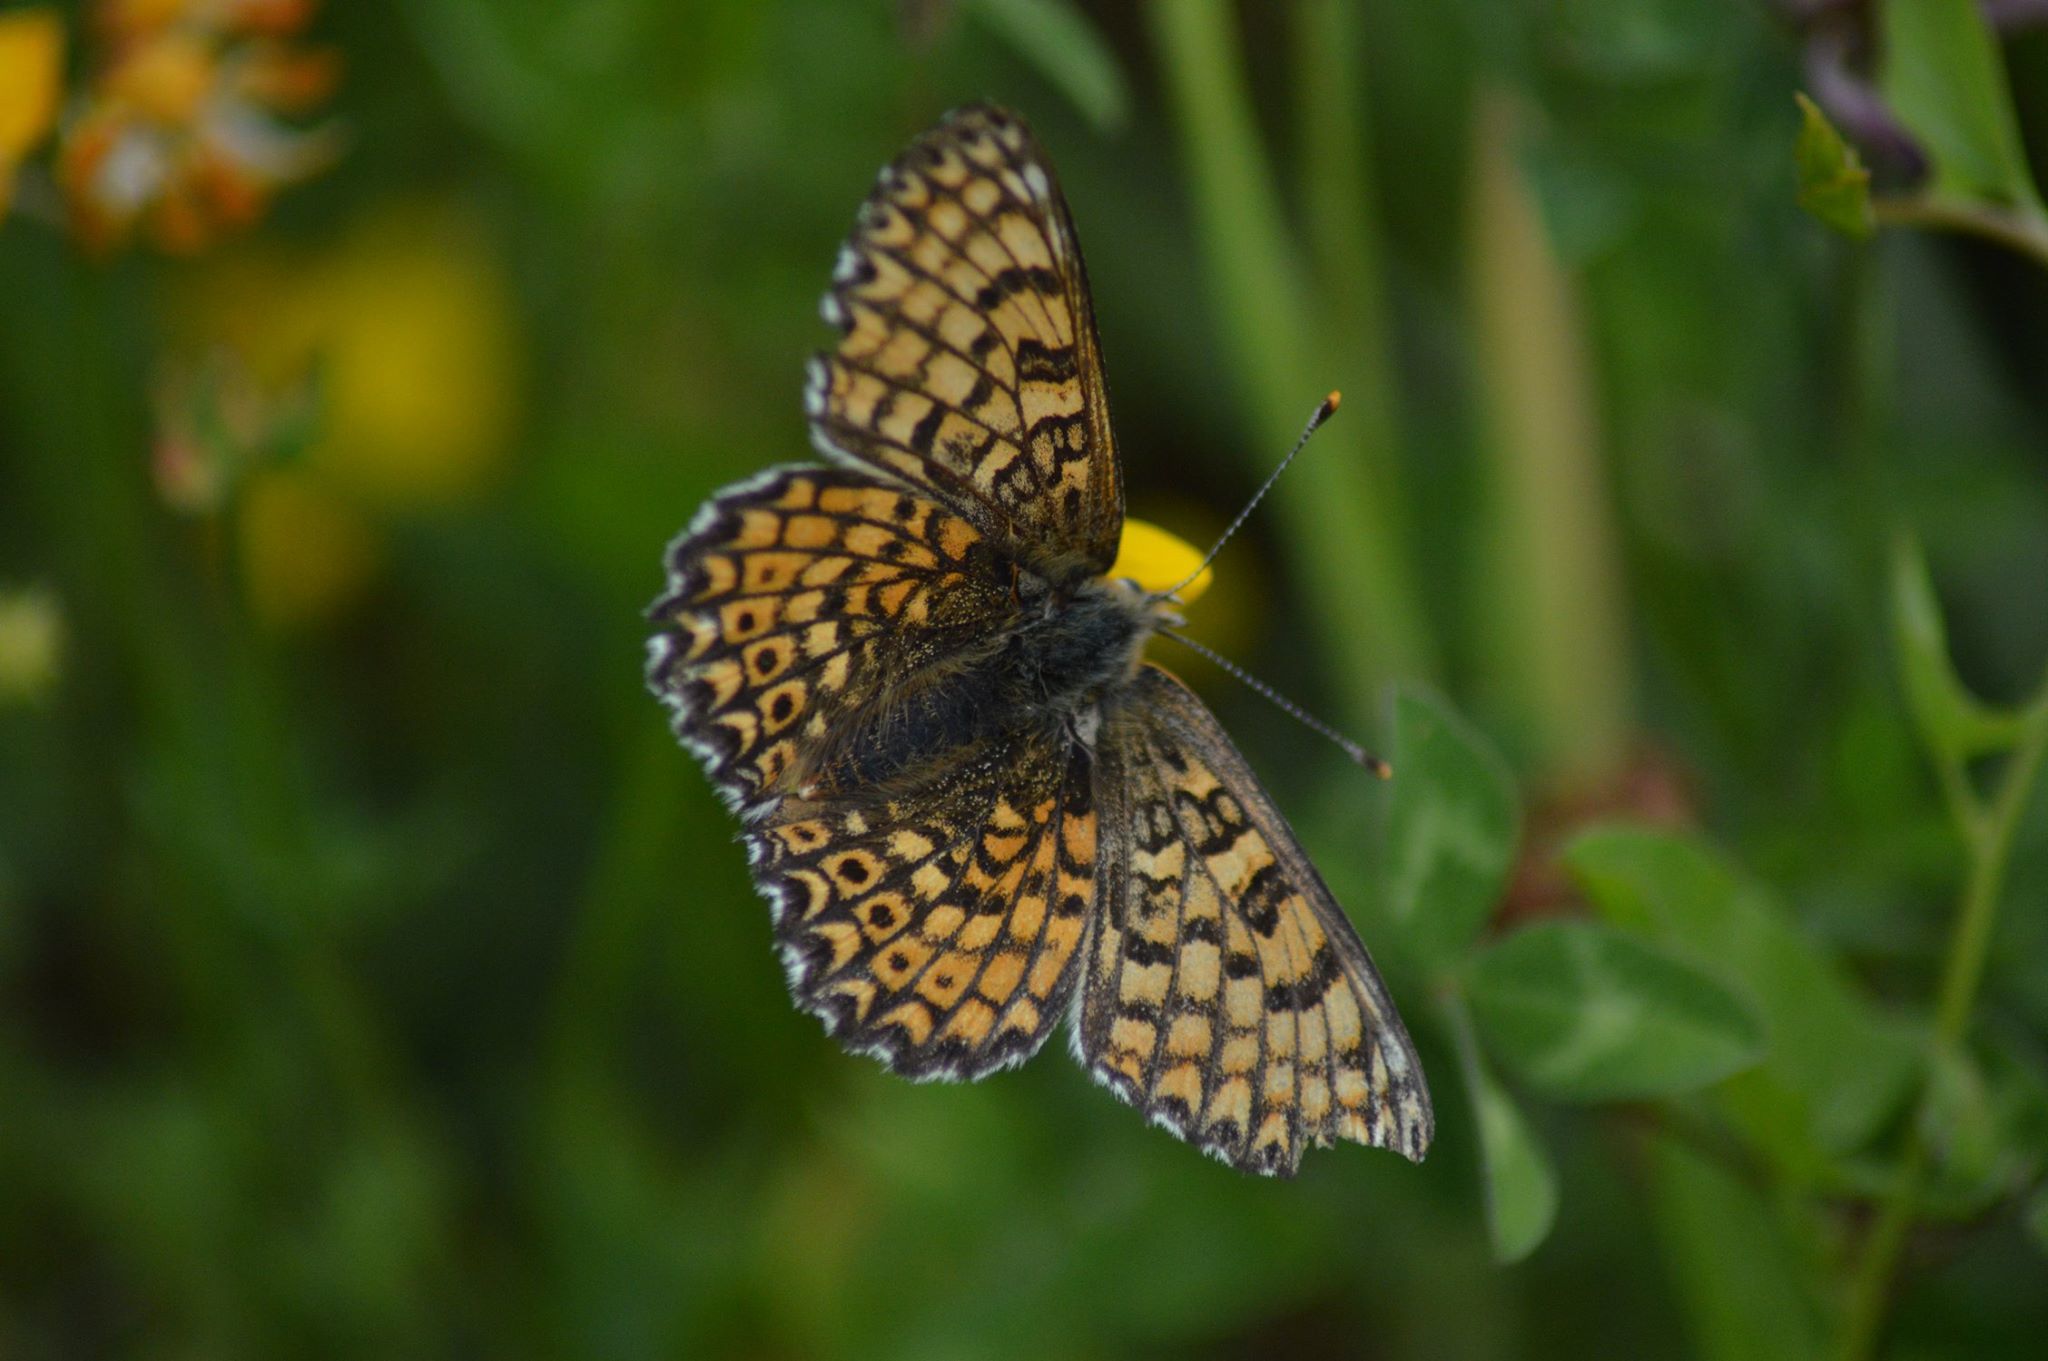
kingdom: Animalia
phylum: Arthropoda
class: Insecta
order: Lepidoptera
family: Nymphalidae
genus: Melitaea
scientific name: Melitaea cinxia
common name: Glanville fritillary
